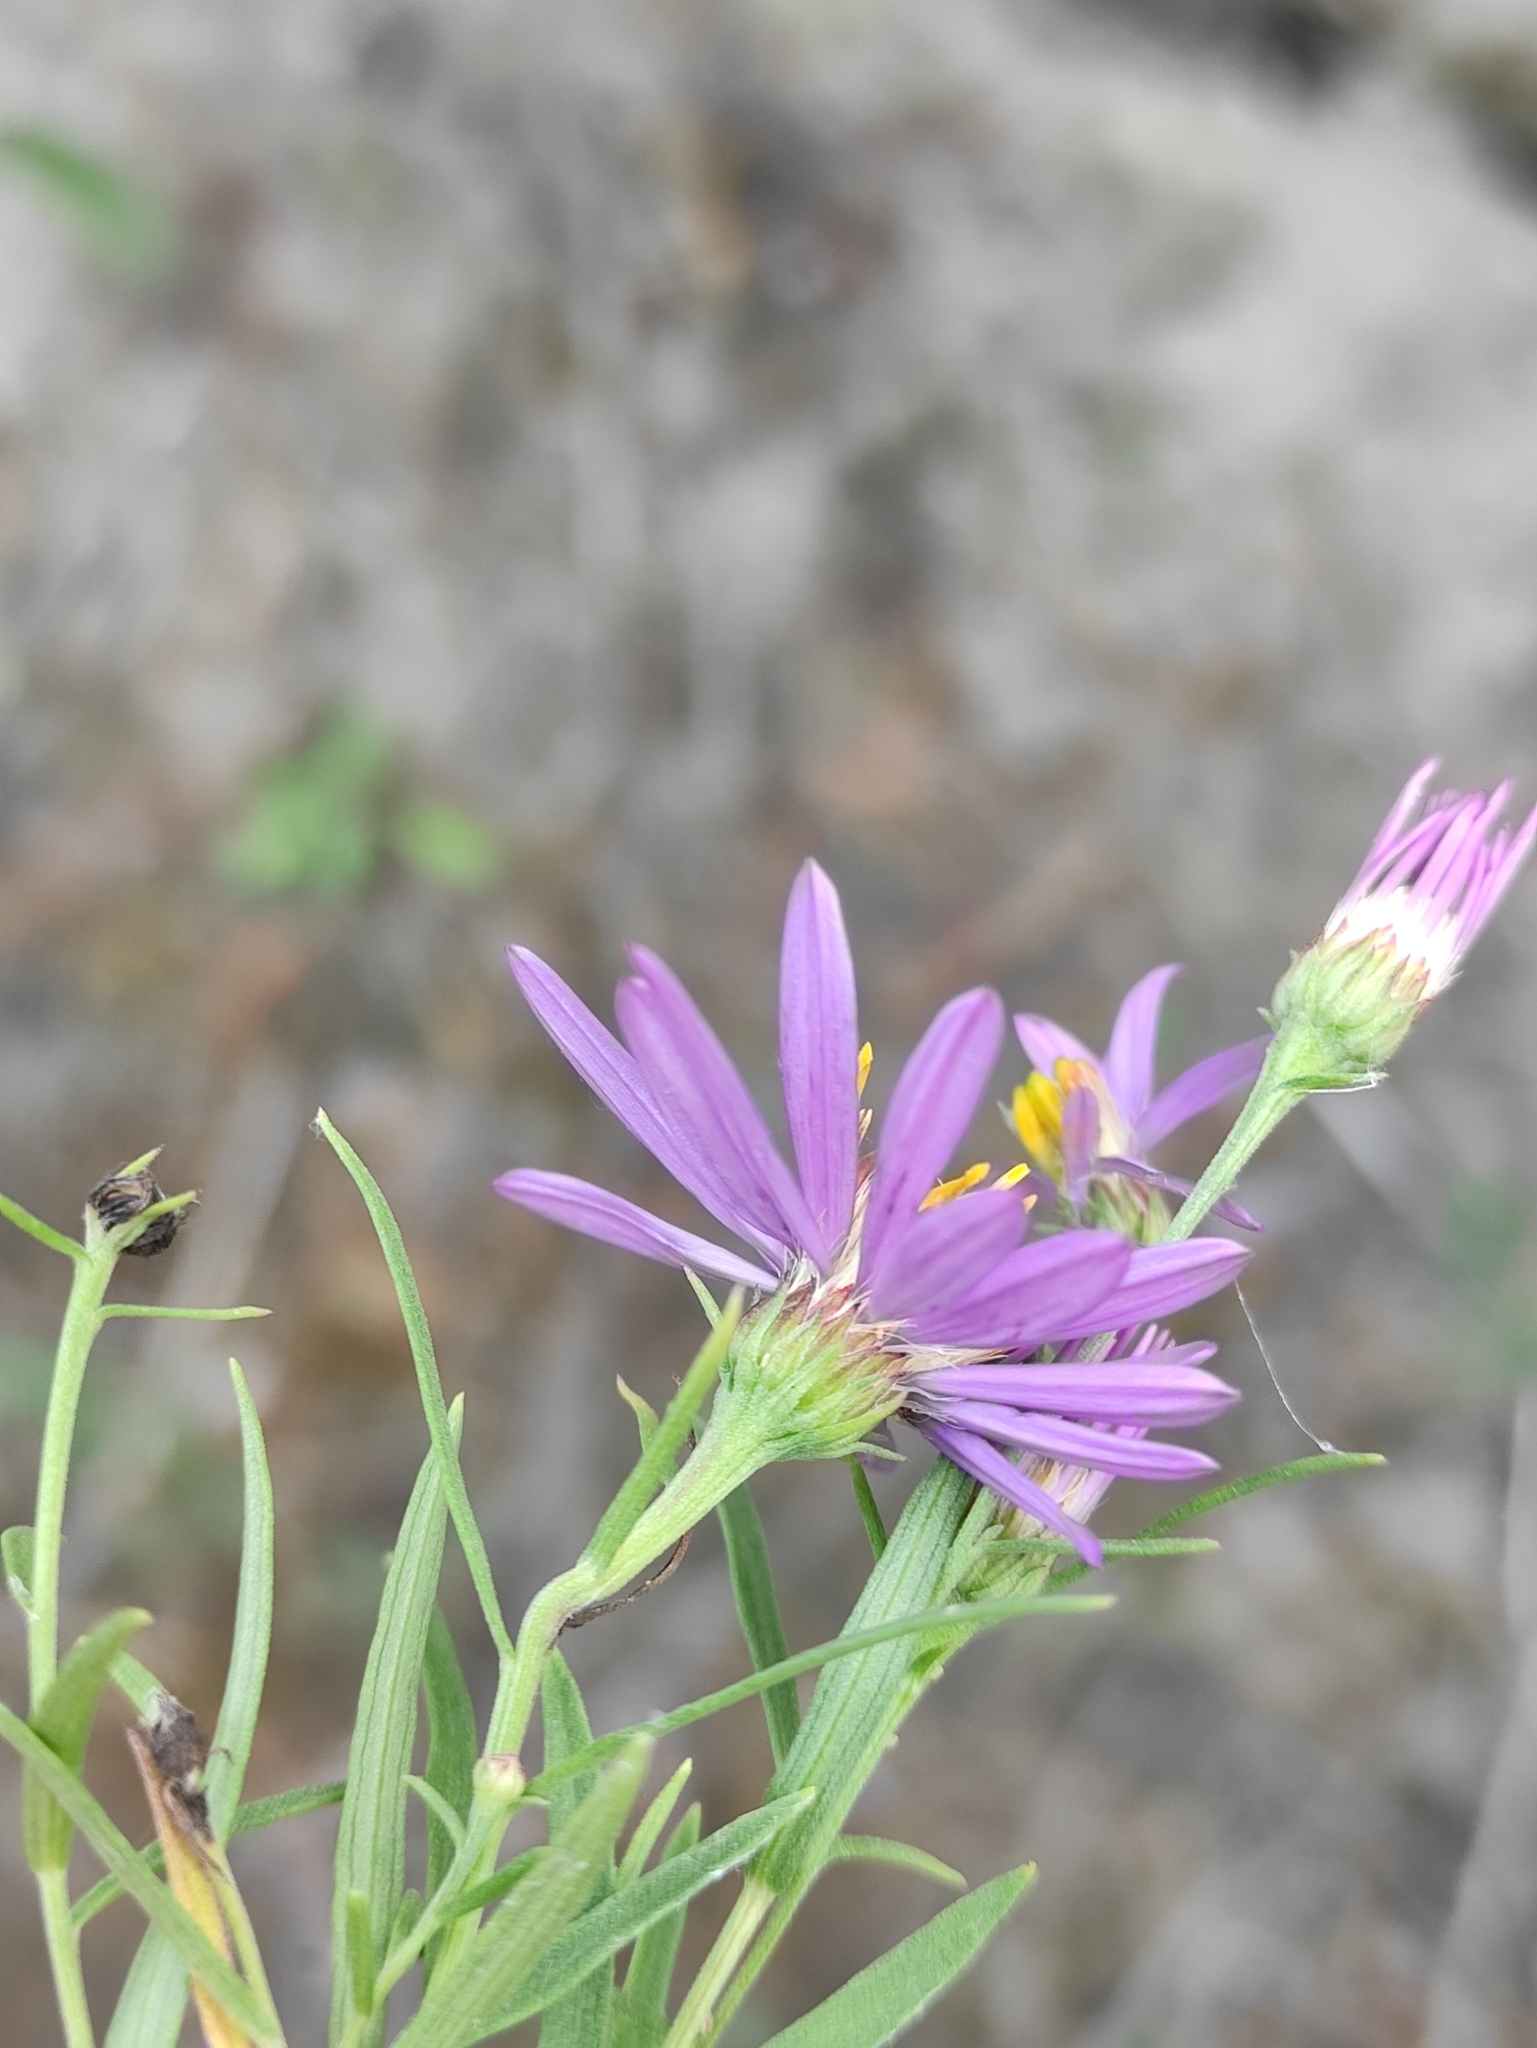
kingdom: Plantae
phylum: Tracheophyta
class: Magnoliopsida
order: Asterales
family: Asteraceae
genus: Galatella
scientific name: Galatella dahurica
